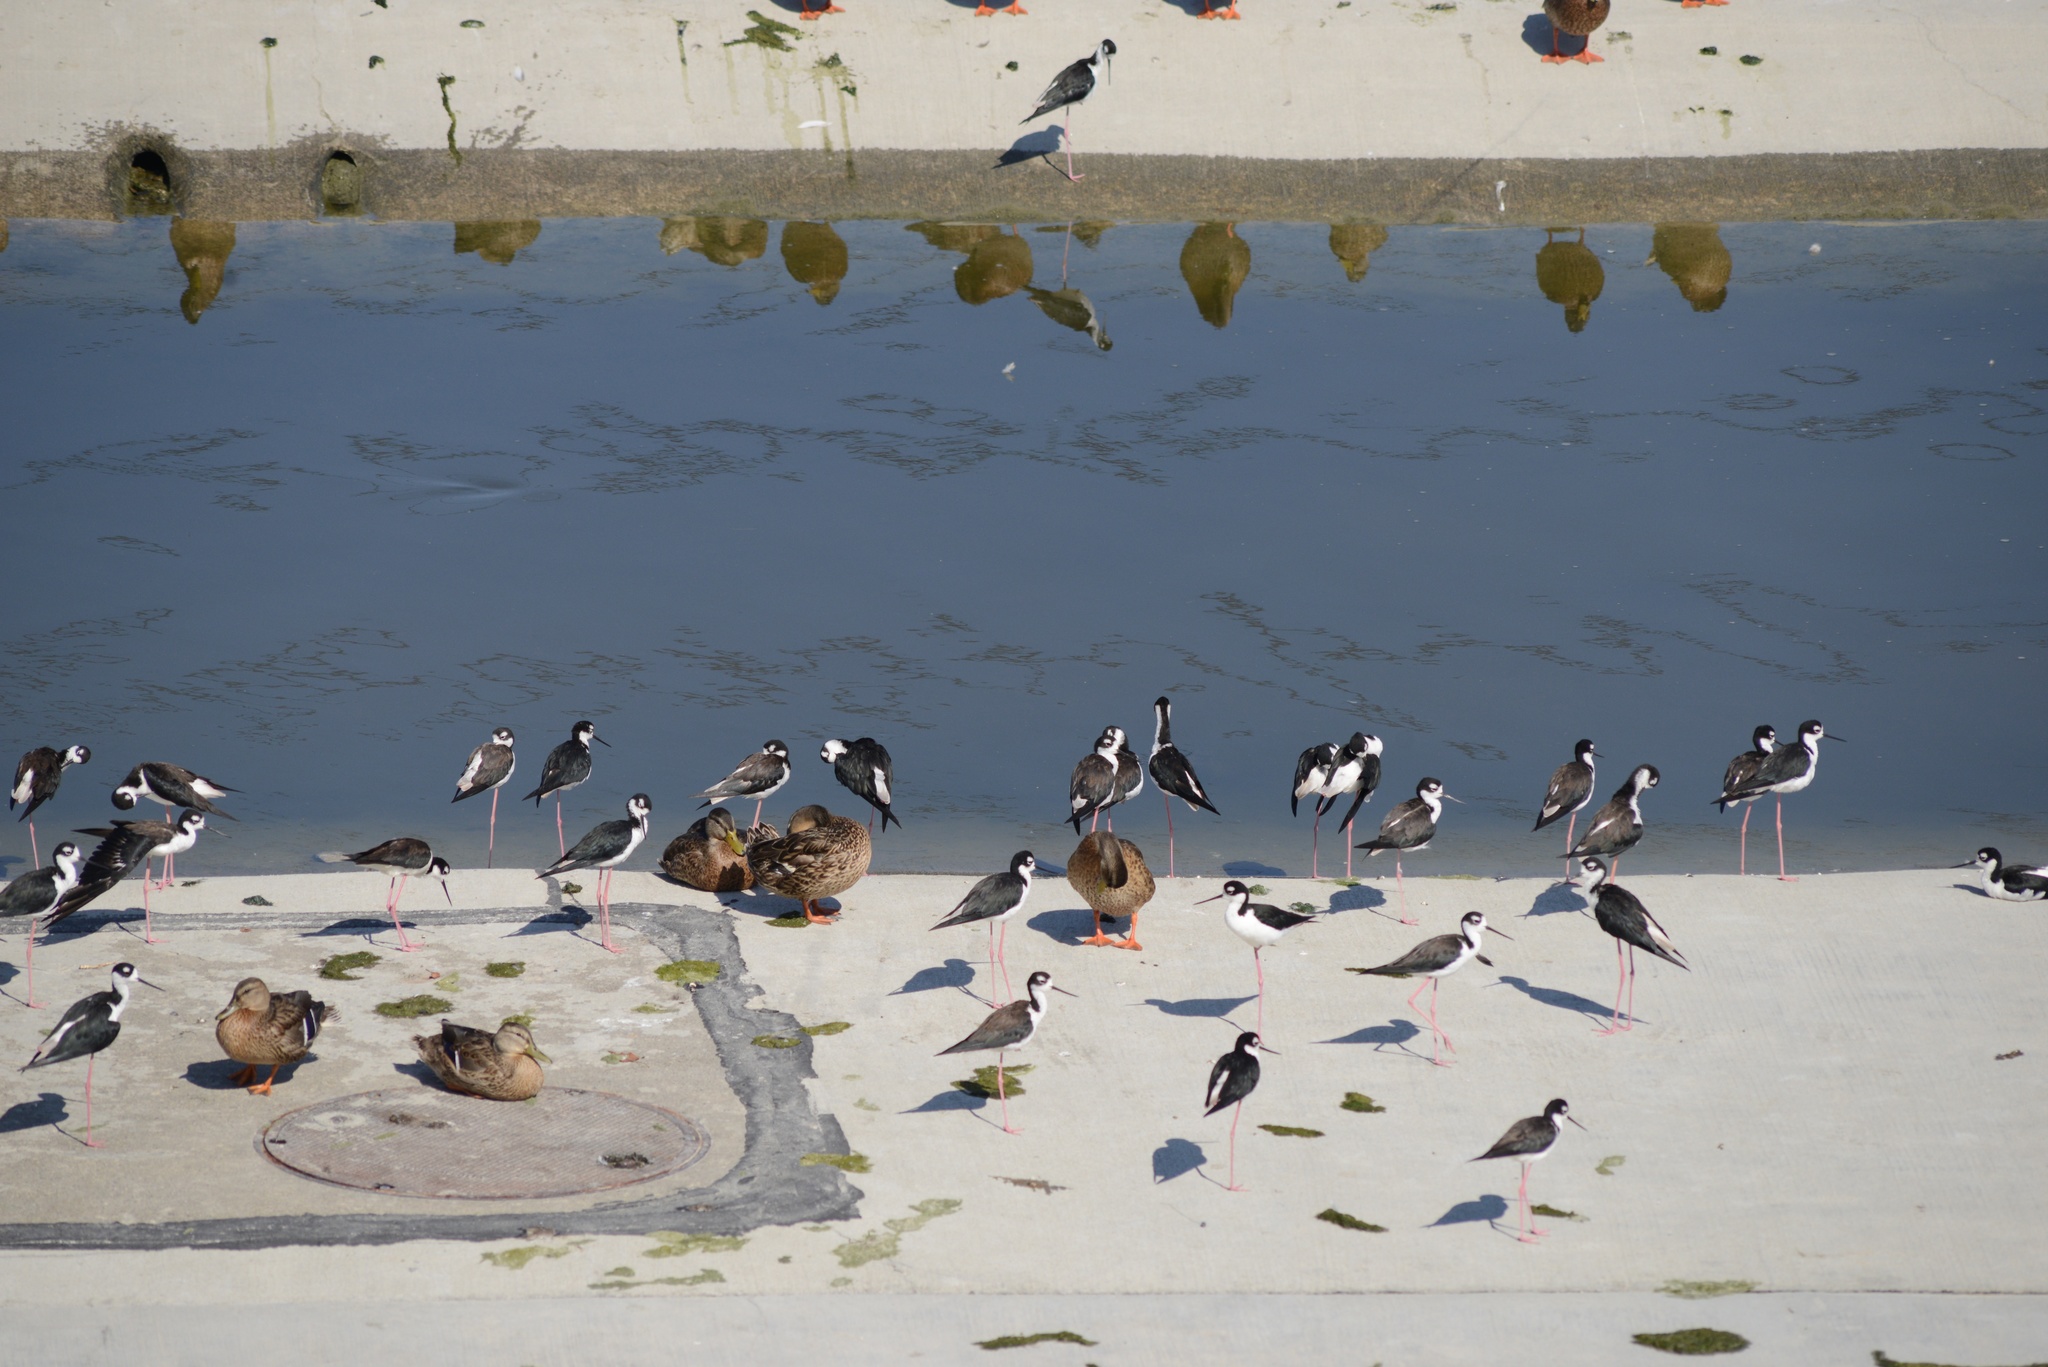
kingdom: Animalia
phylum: Chordata
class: Aves
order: Charadriiformes
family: Recurvirostridae
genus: Himantopus
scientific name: Himantopus mexicanus
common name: Black-necked stilt
